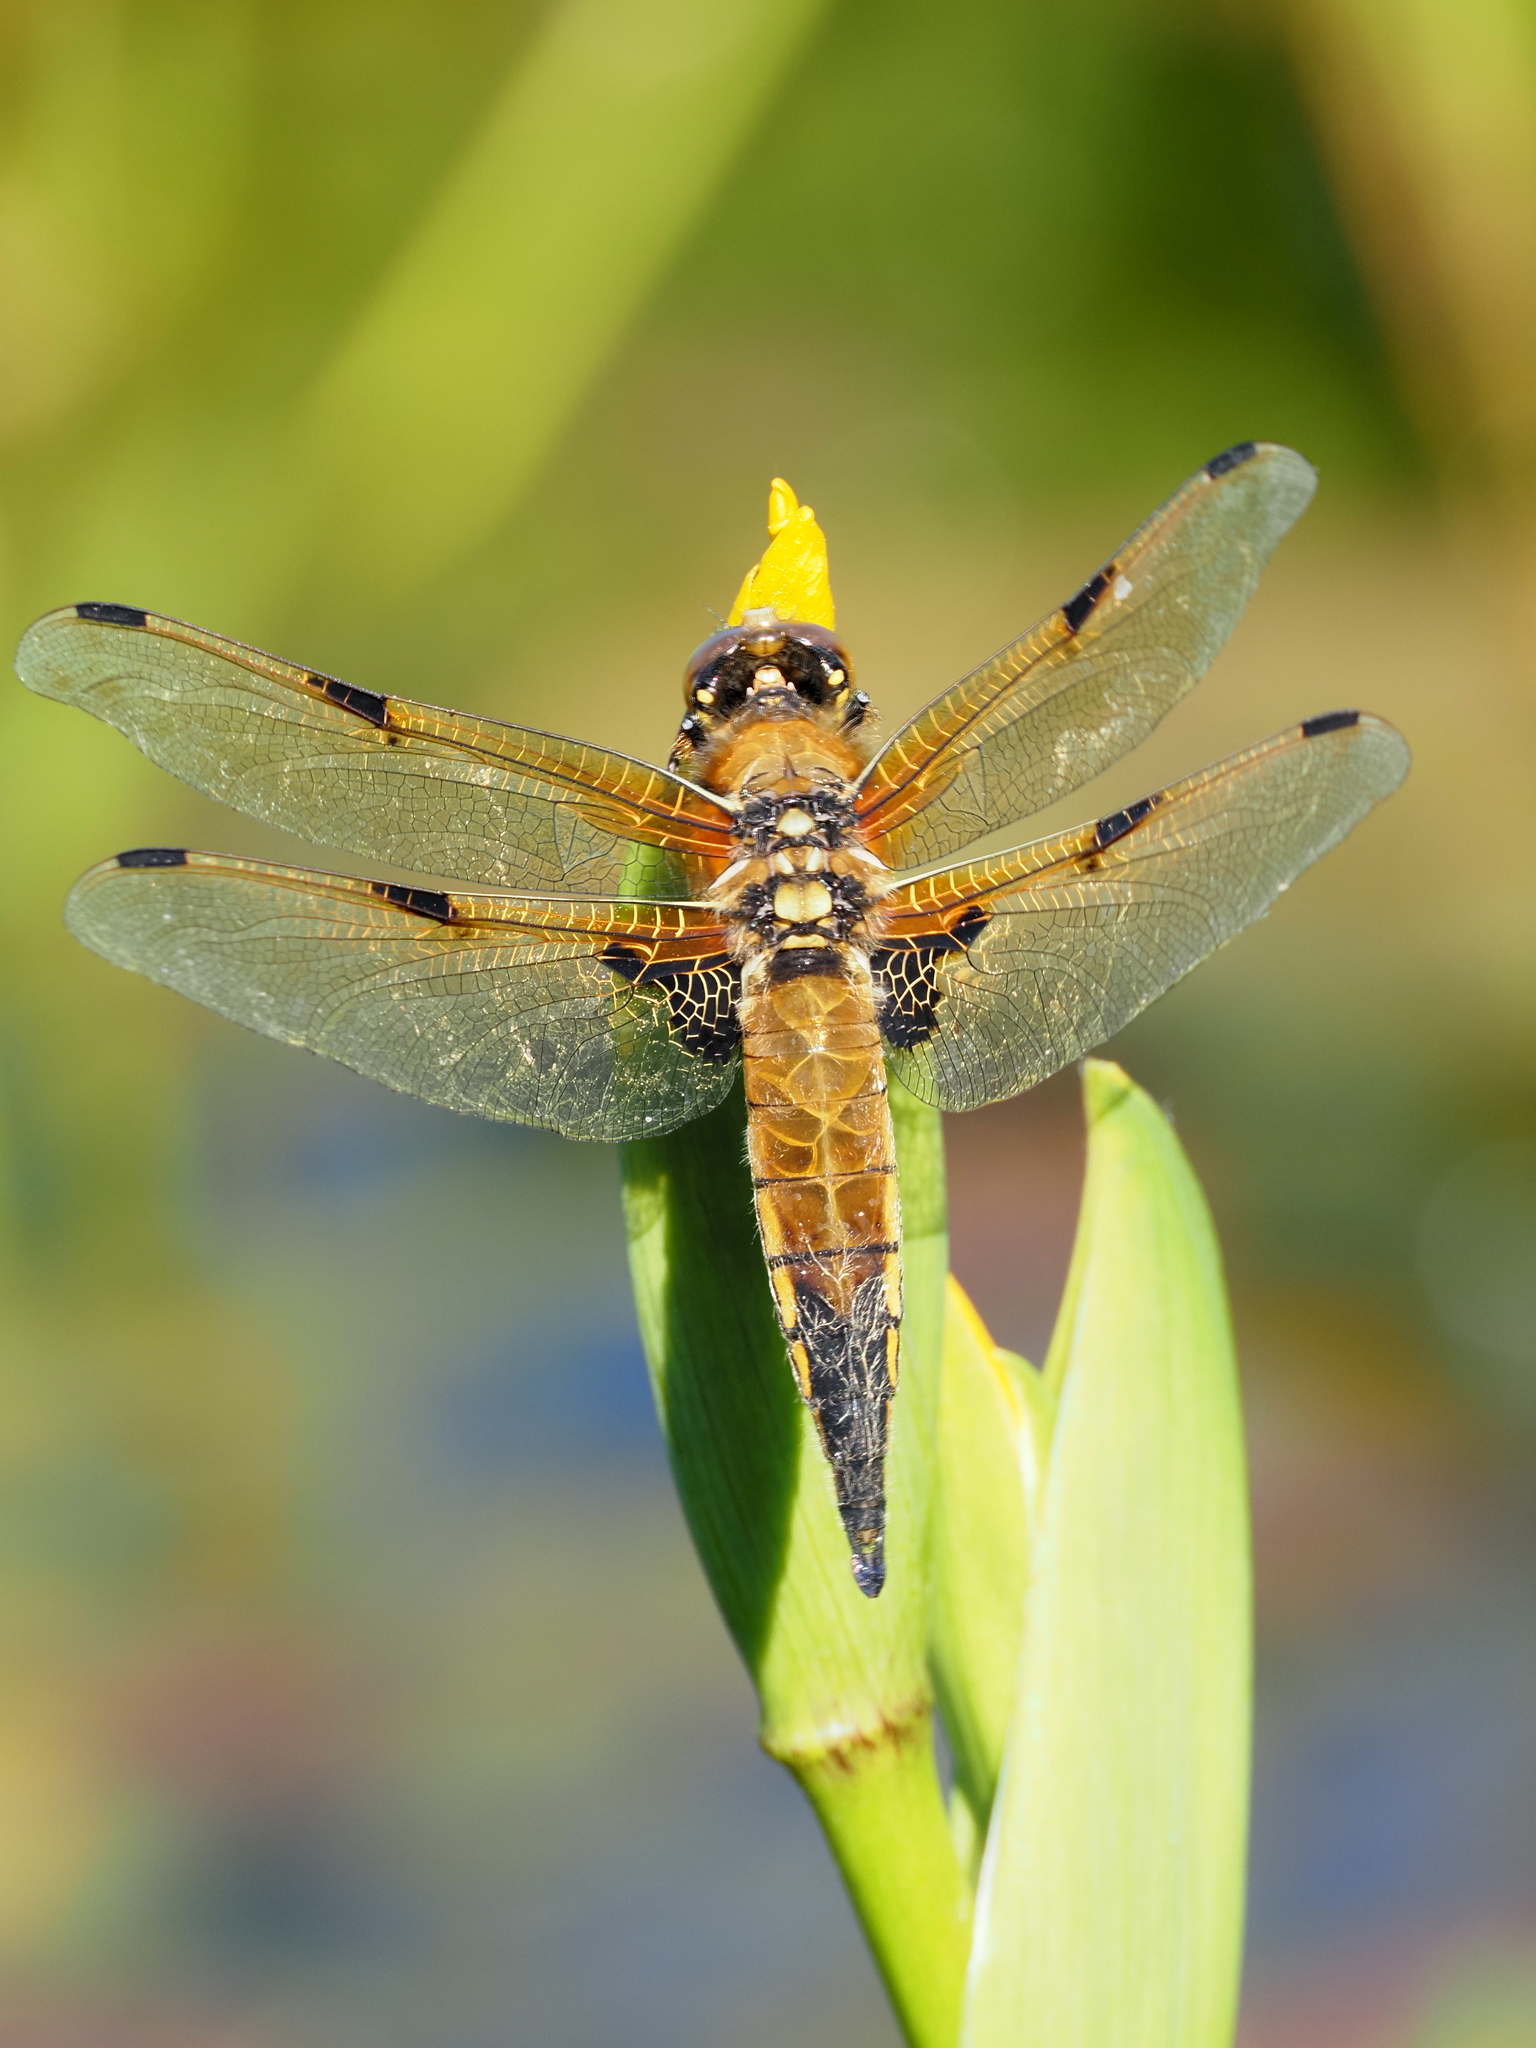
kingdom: Animalia
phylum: Arthropoda
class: Insecta
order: Odonata
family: Libellulidae
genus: Libellula
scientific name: Libellula quadrimaculata
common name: Four-spotted chaser
